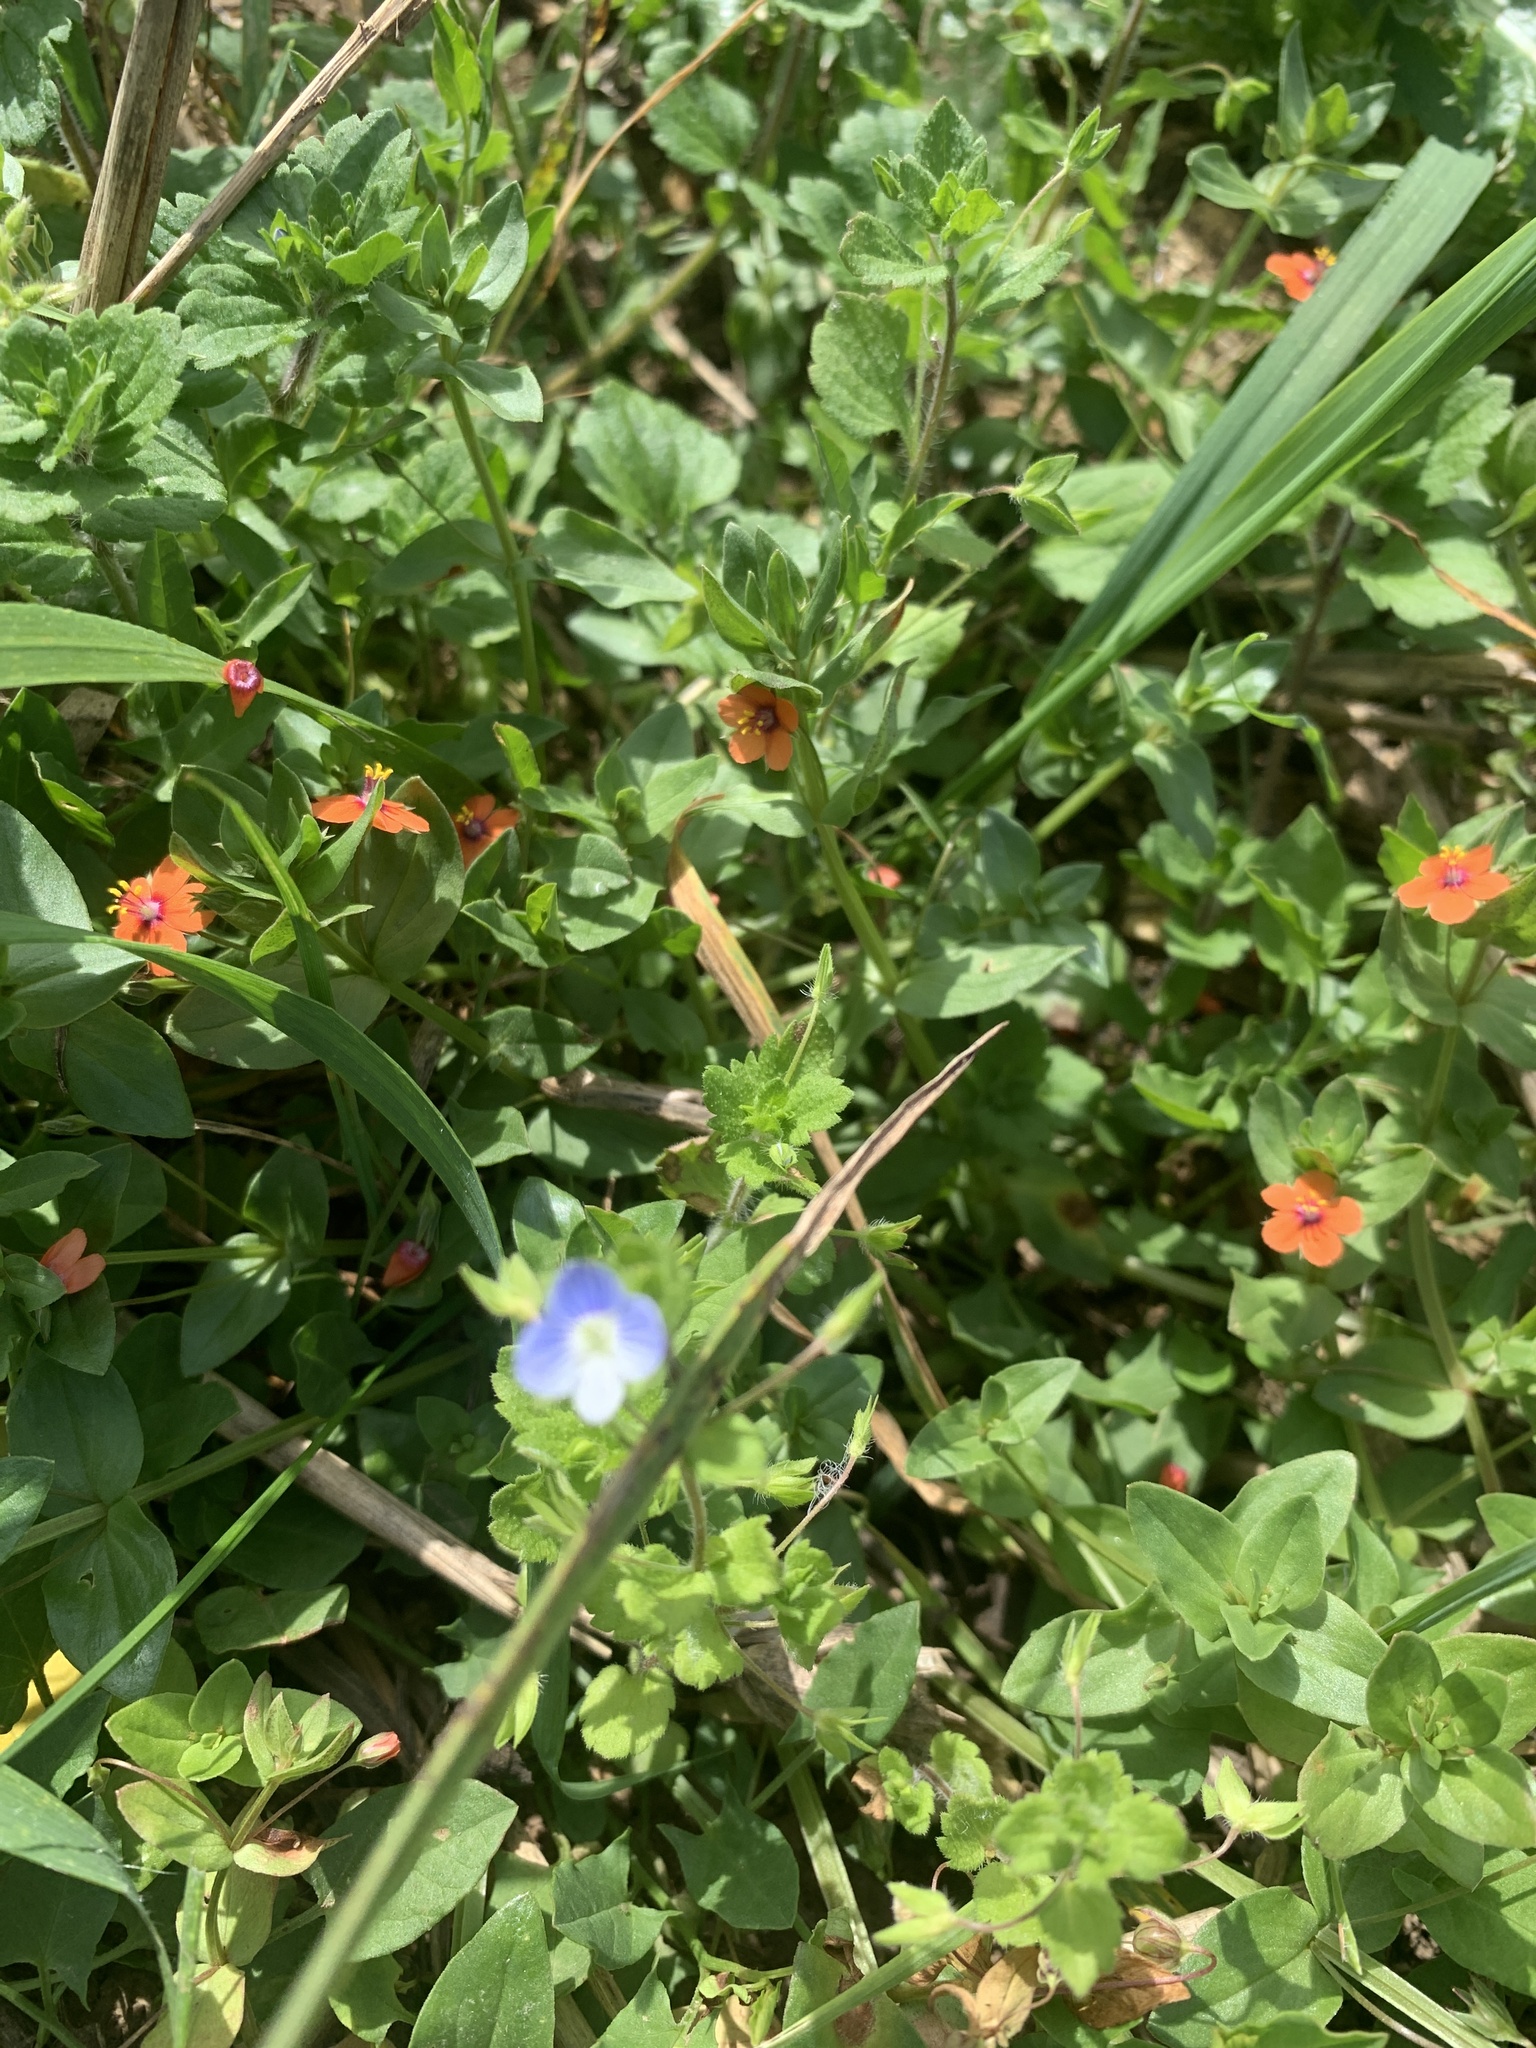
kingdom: Plantae
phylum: Tracheophyta
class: Magnoliopsida
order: Lamiales
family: Plantaginaceae
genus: Veronica
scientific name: Veronica persica
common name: Common field-speedwell
